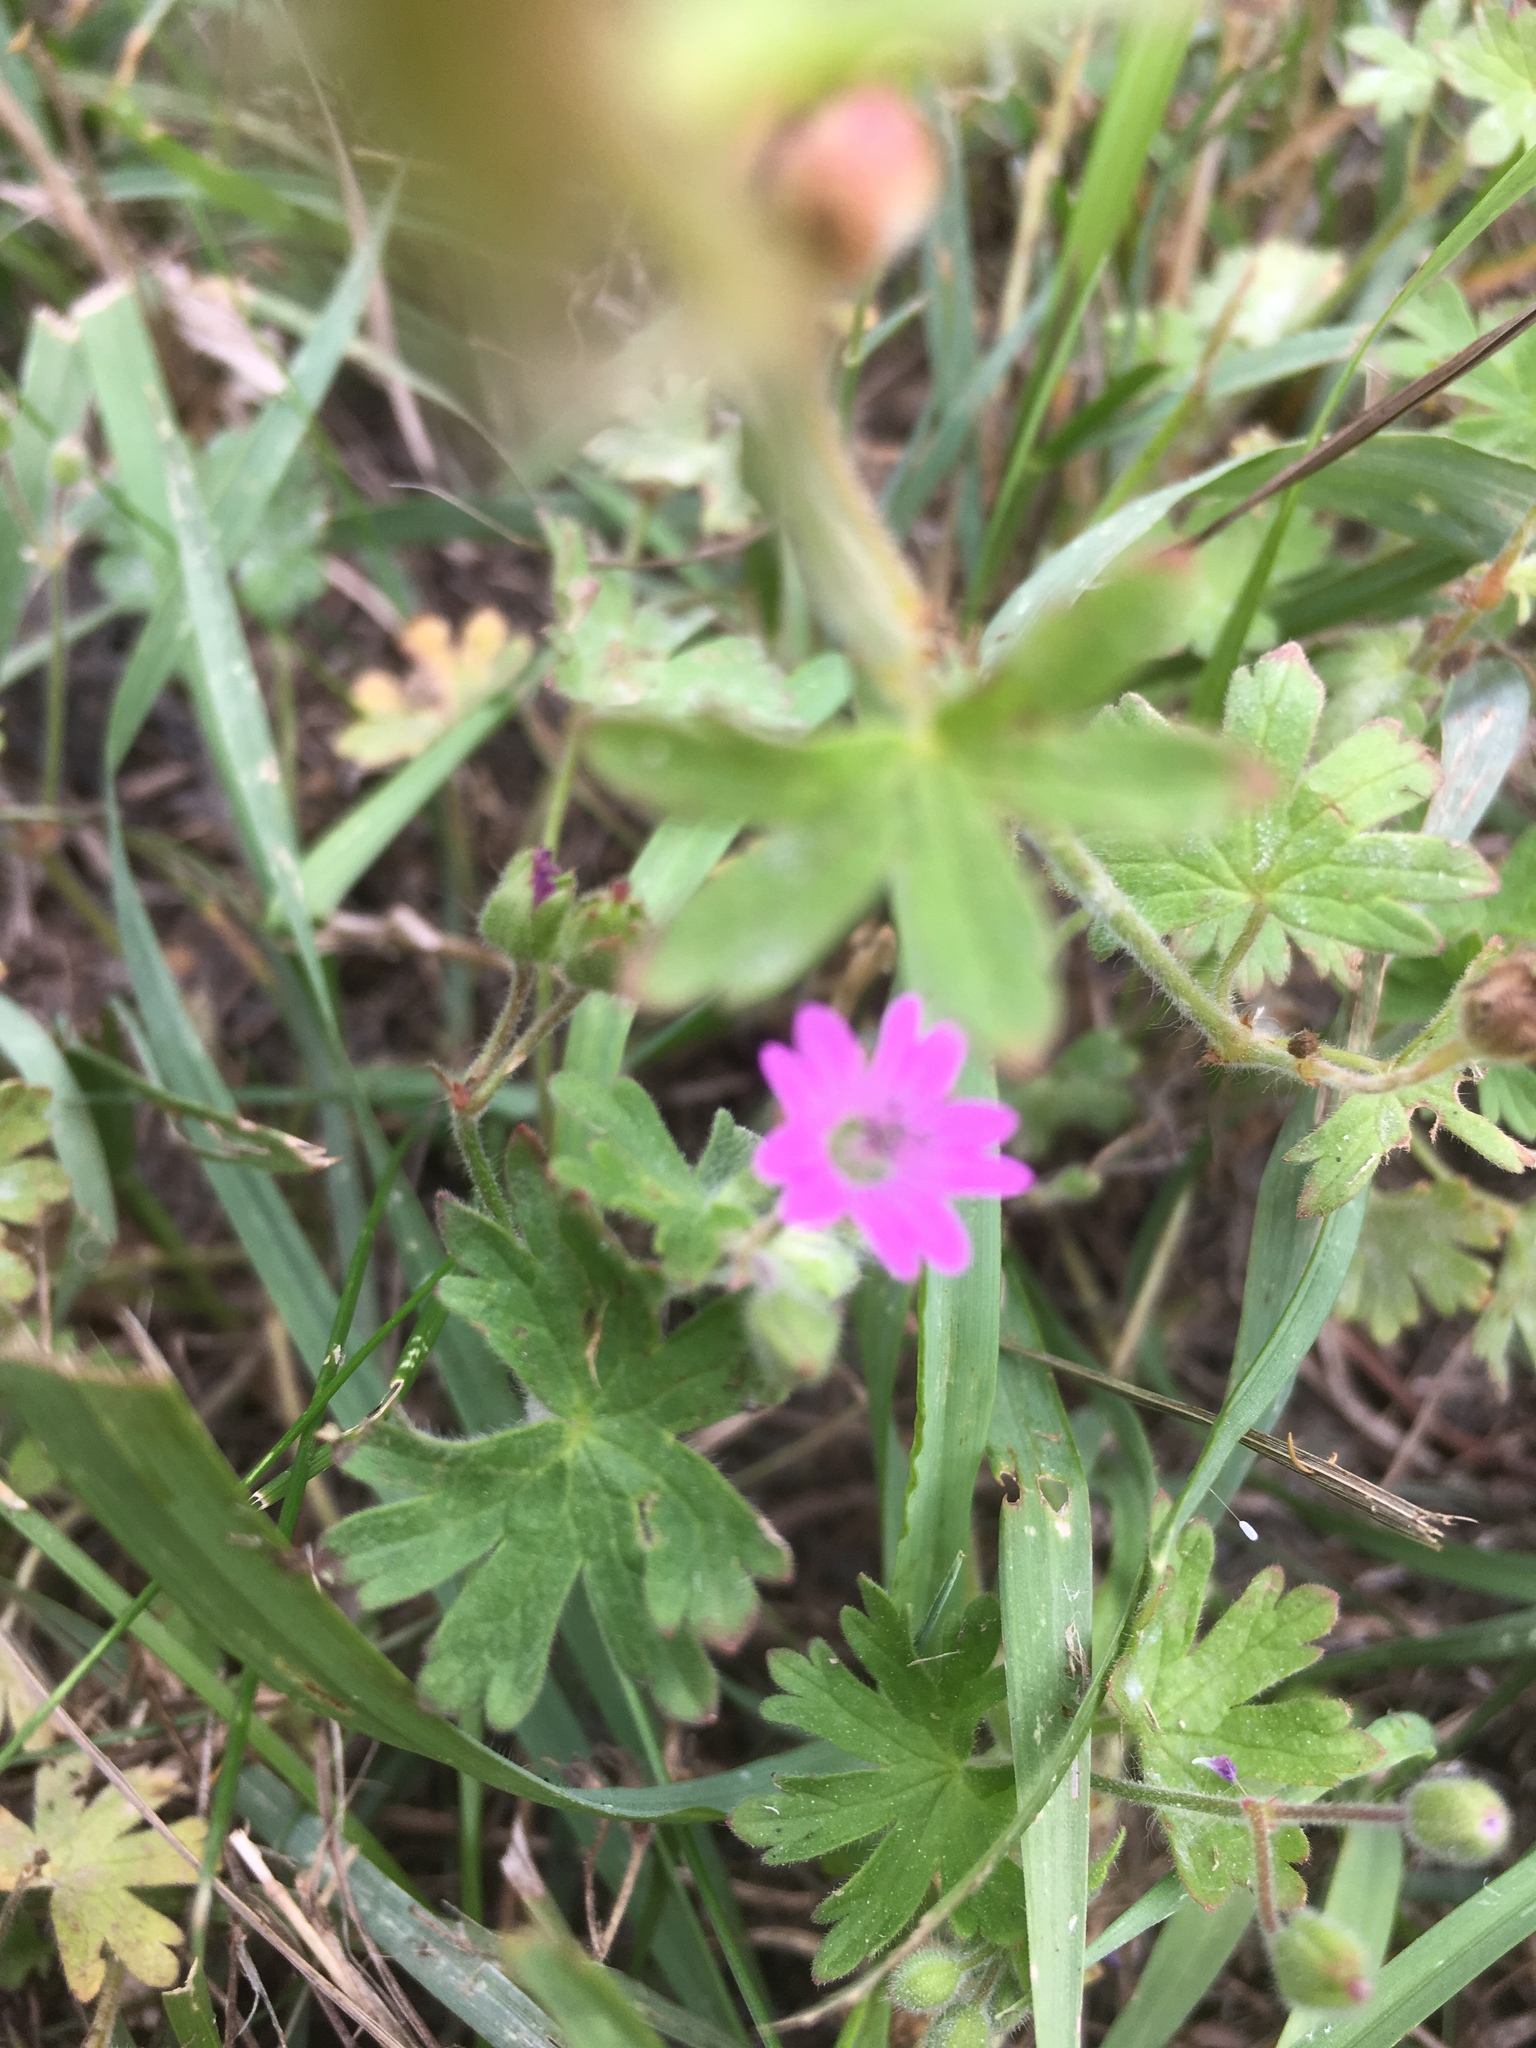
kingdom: Plantae
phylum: Tracheophyta
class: Magnoliopsida
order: Geraniales
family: Geraniaceae
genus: Geranium
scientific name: Geranium molle
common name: Dove's-foot crane's-bill
